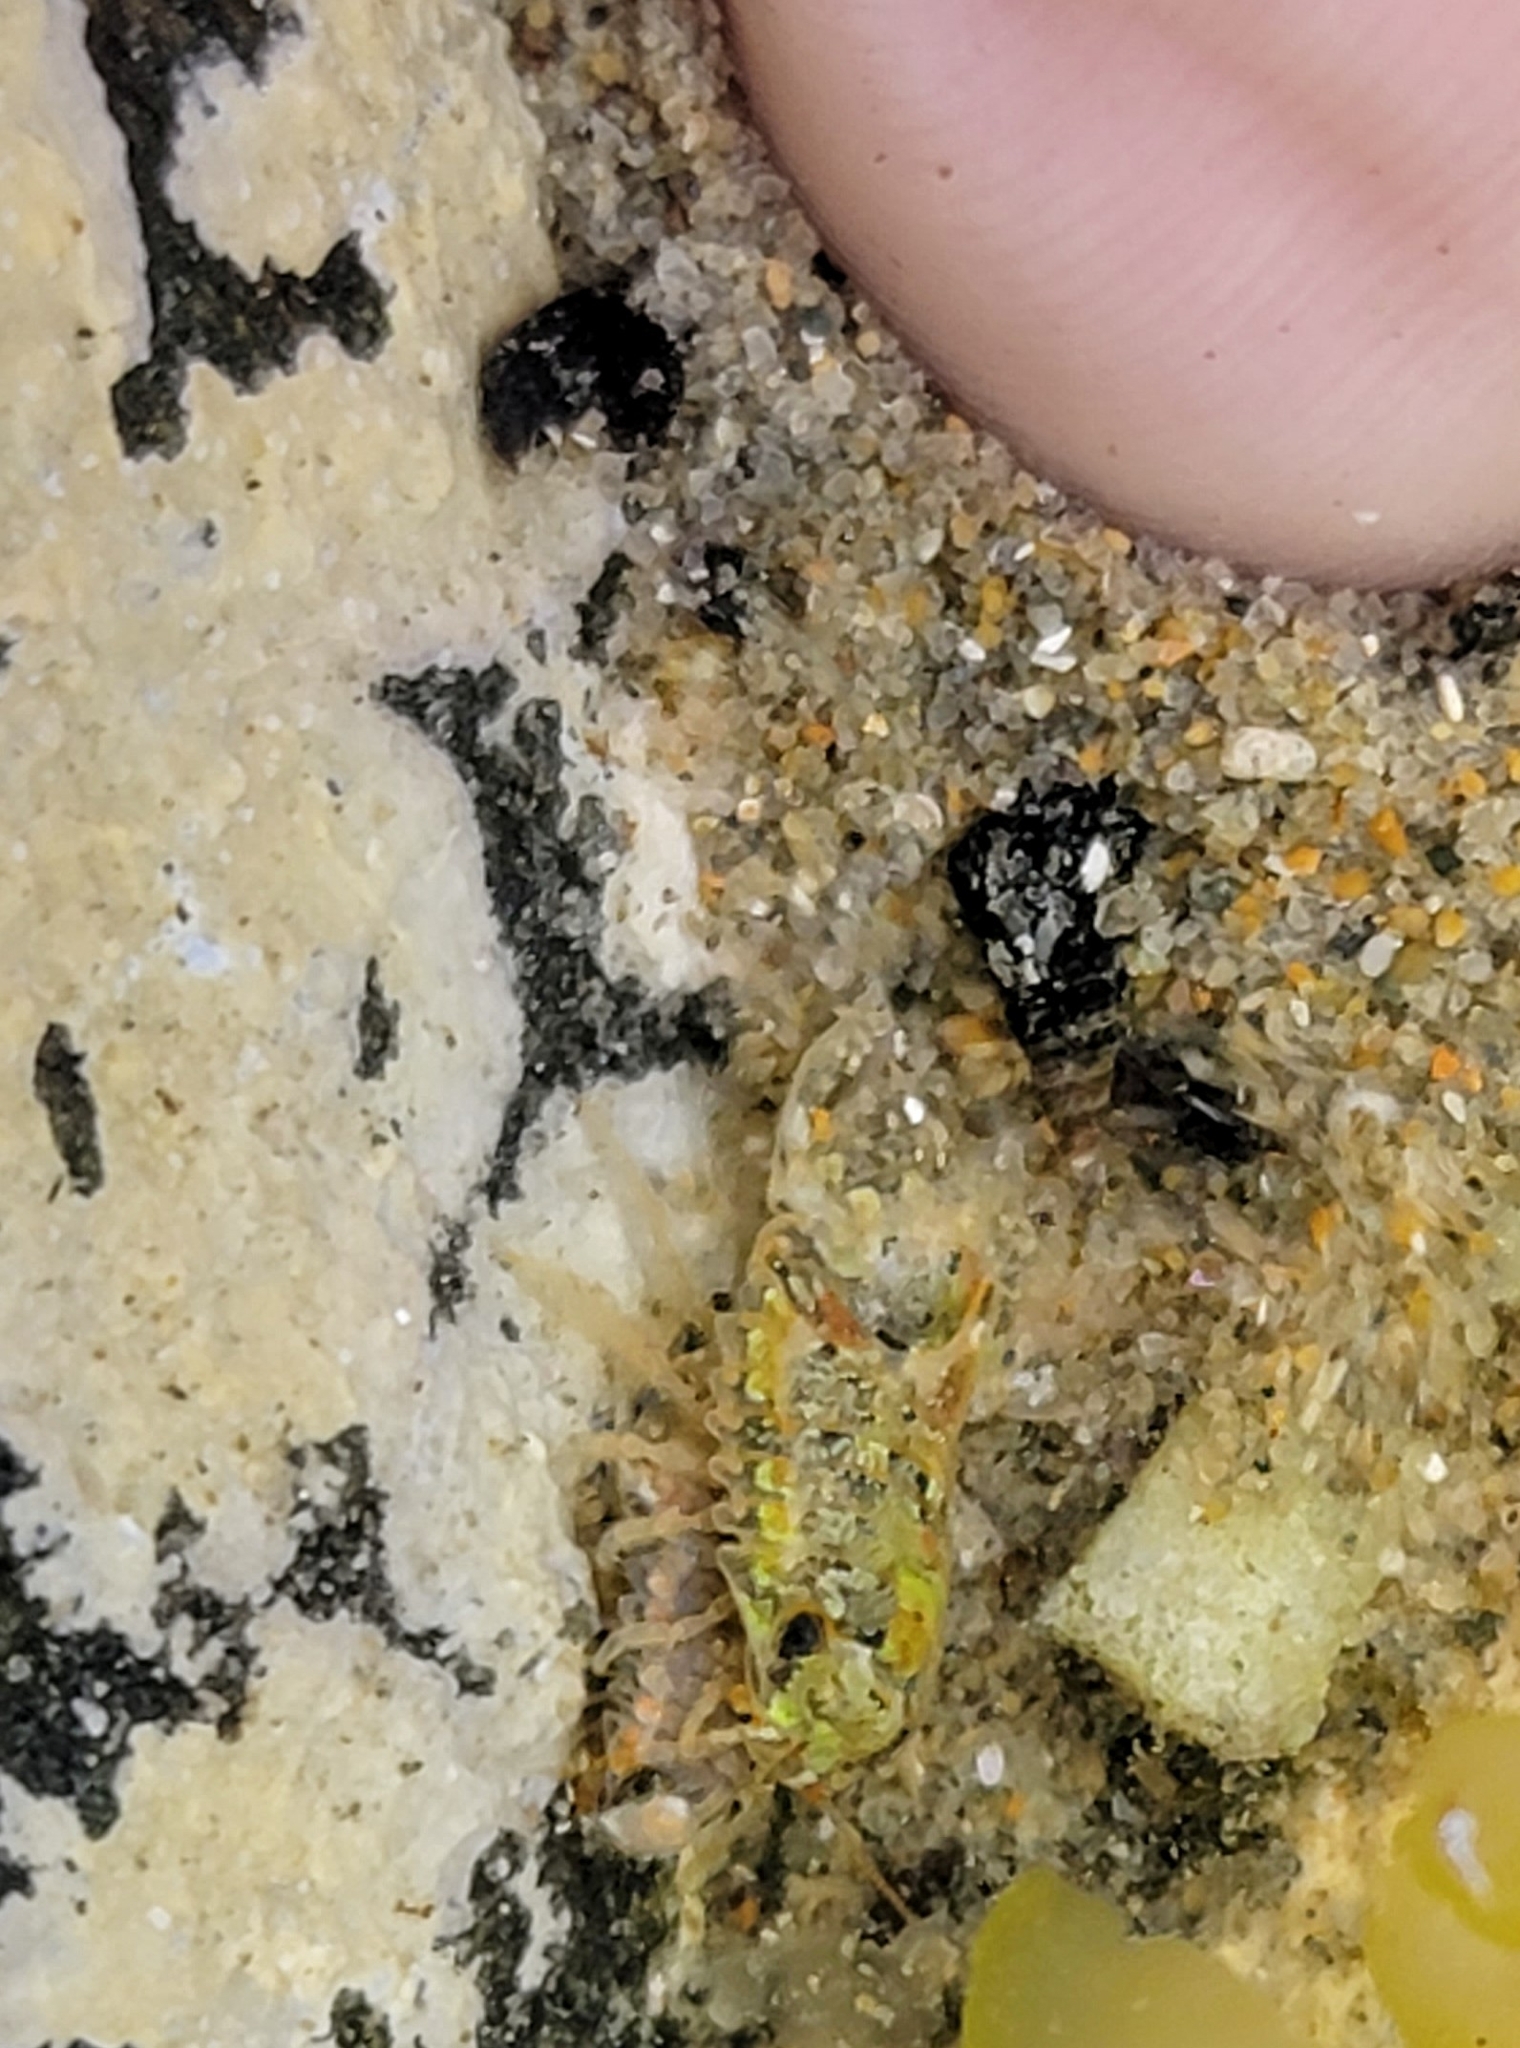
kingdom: Animalia
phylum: Arthropoda
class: Malacostraca
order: Isopoda
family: Sphaeromatidae
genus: Isocladus
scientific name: Isocladus armatus
